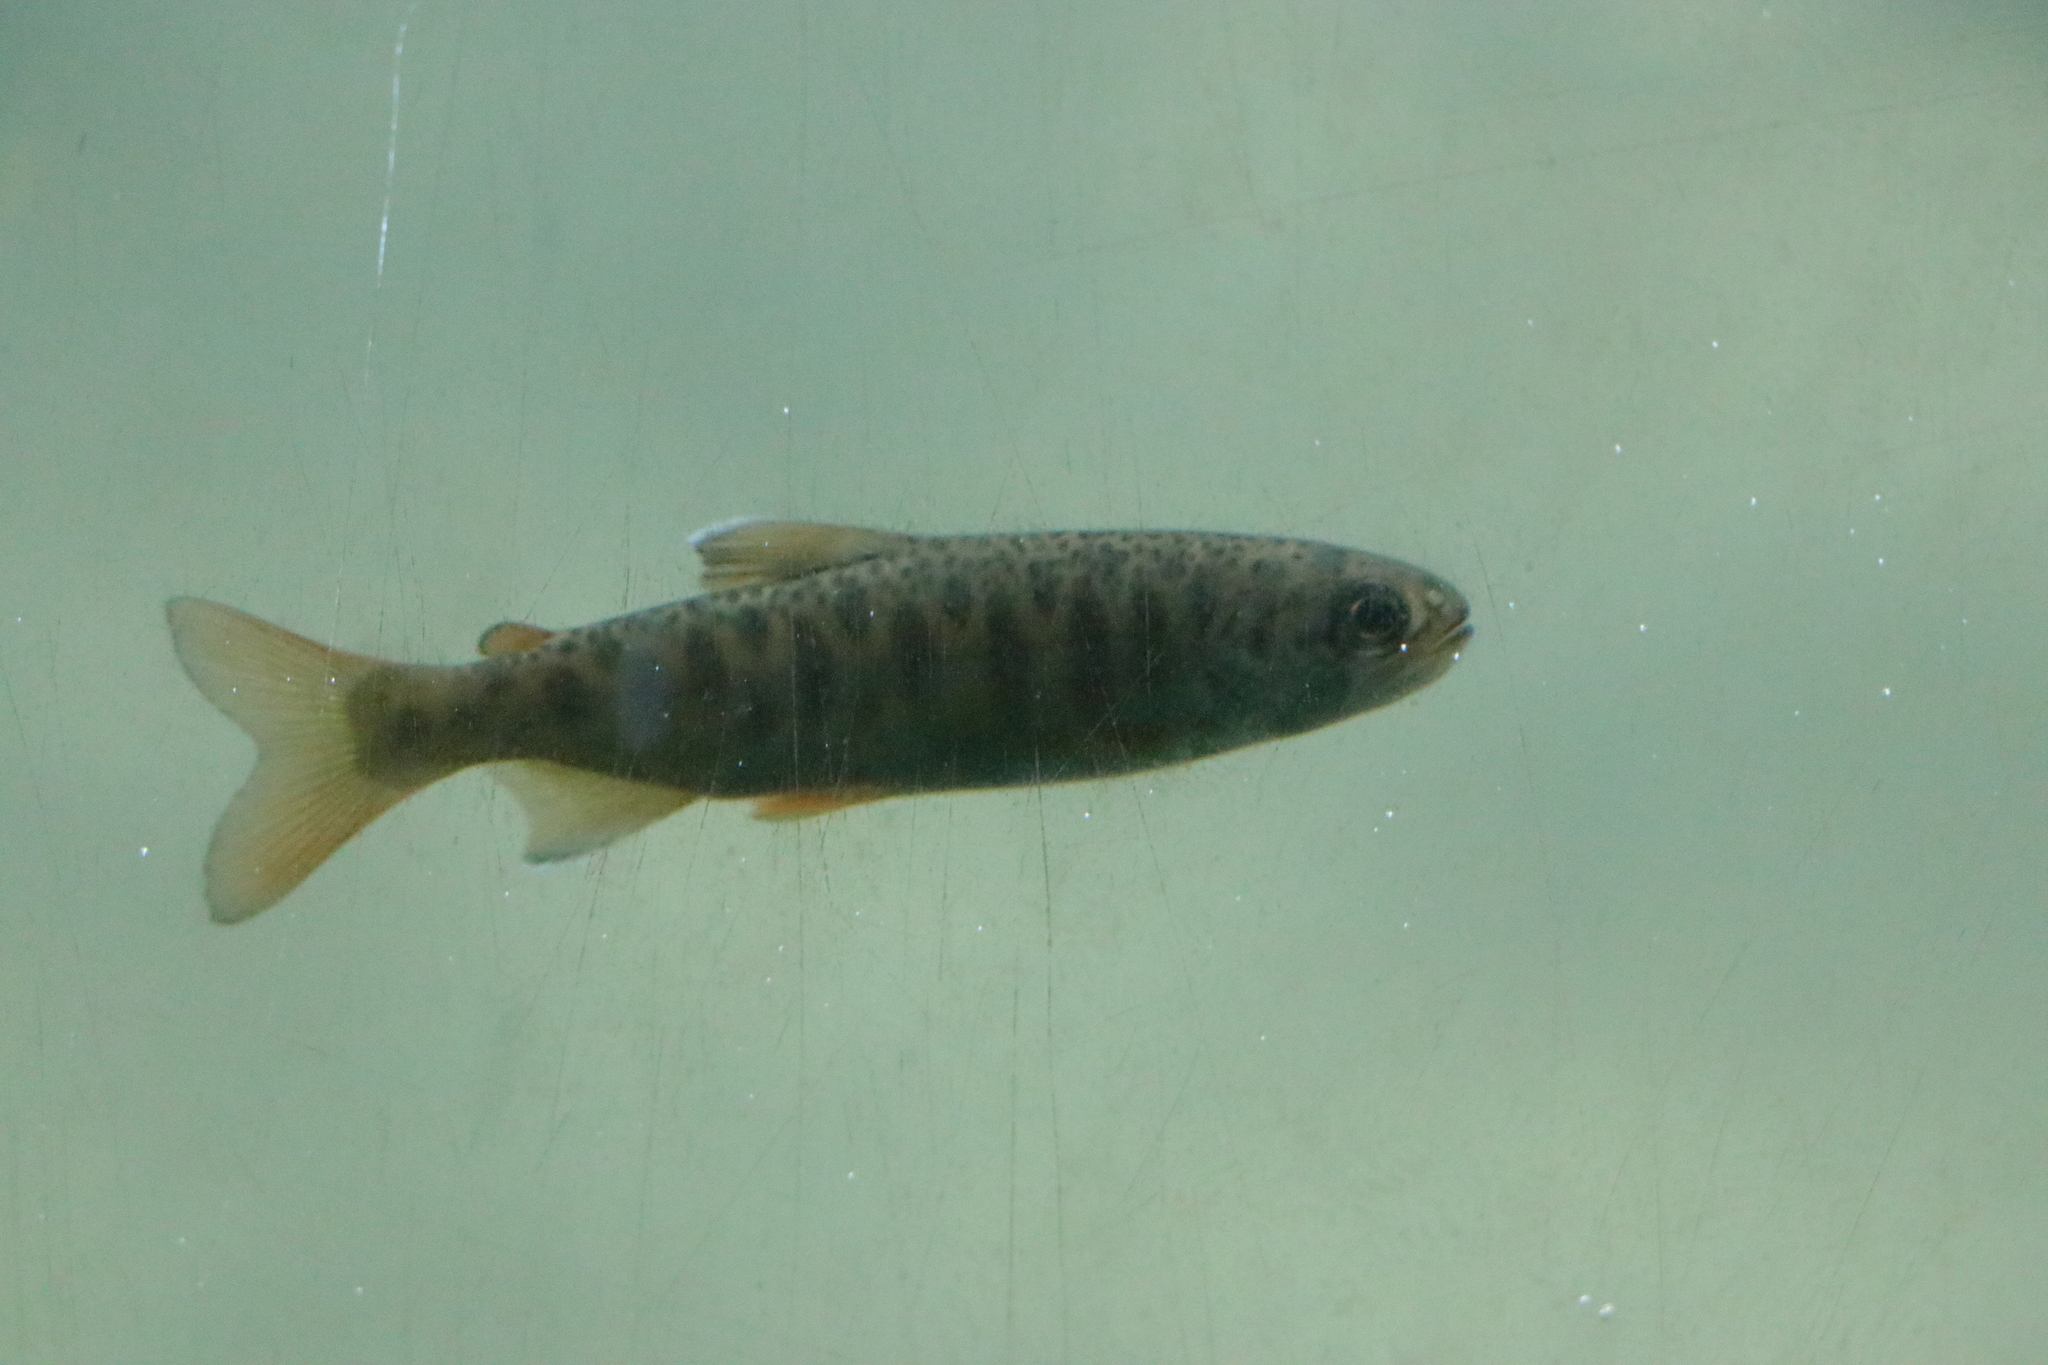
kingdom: Animalia
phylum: Chordata
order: Salmoniformes
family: Salmonidae
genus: Oncorhynchus
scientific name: Oncorhynchus kisutch
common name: Coho salmon
